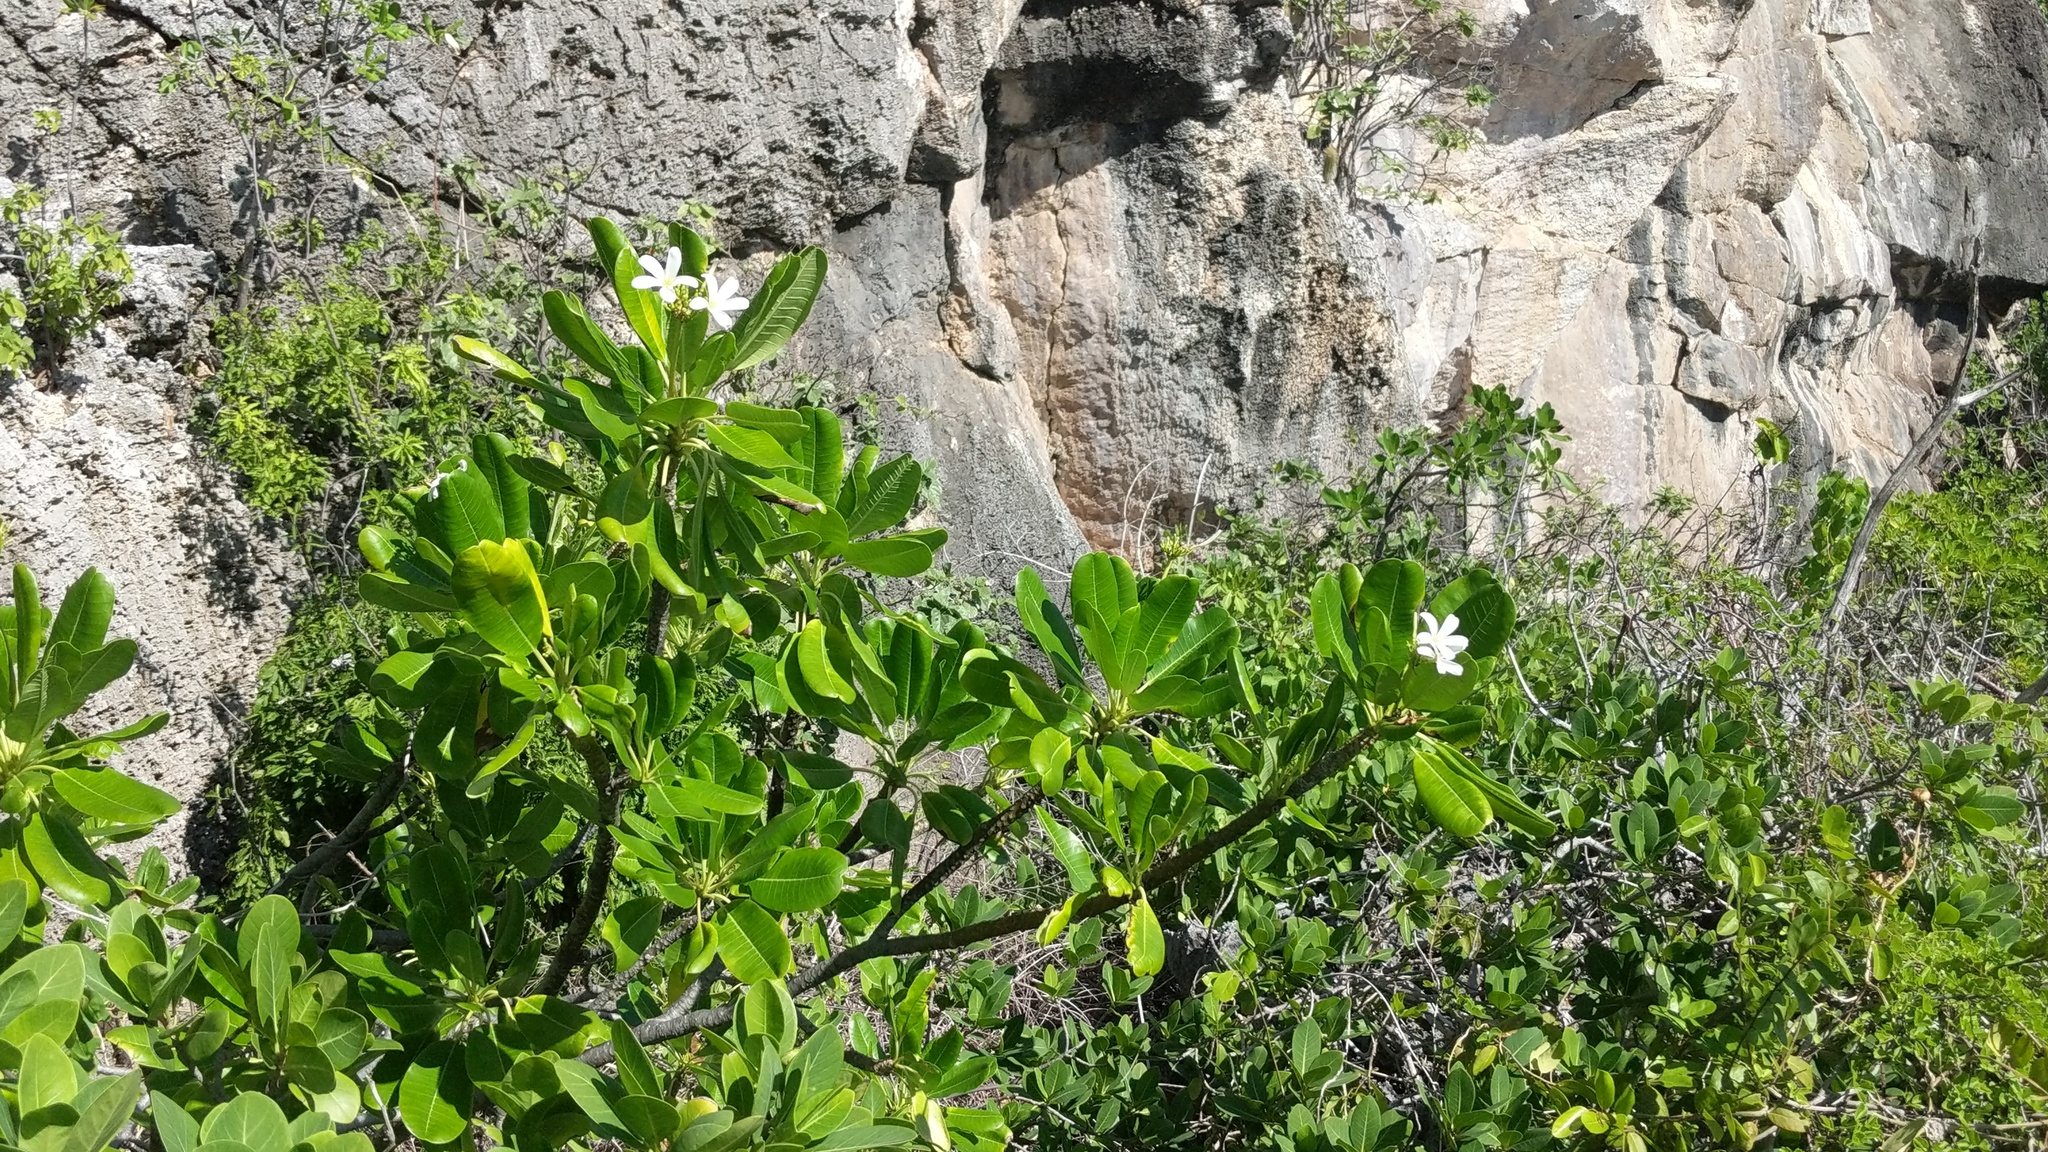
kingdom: Plantae
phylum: Tracheophyta
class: Magnoliopsida
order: Gentianales
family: Apocynaceae
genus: Plumeria
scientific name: Plumeria obtusa
